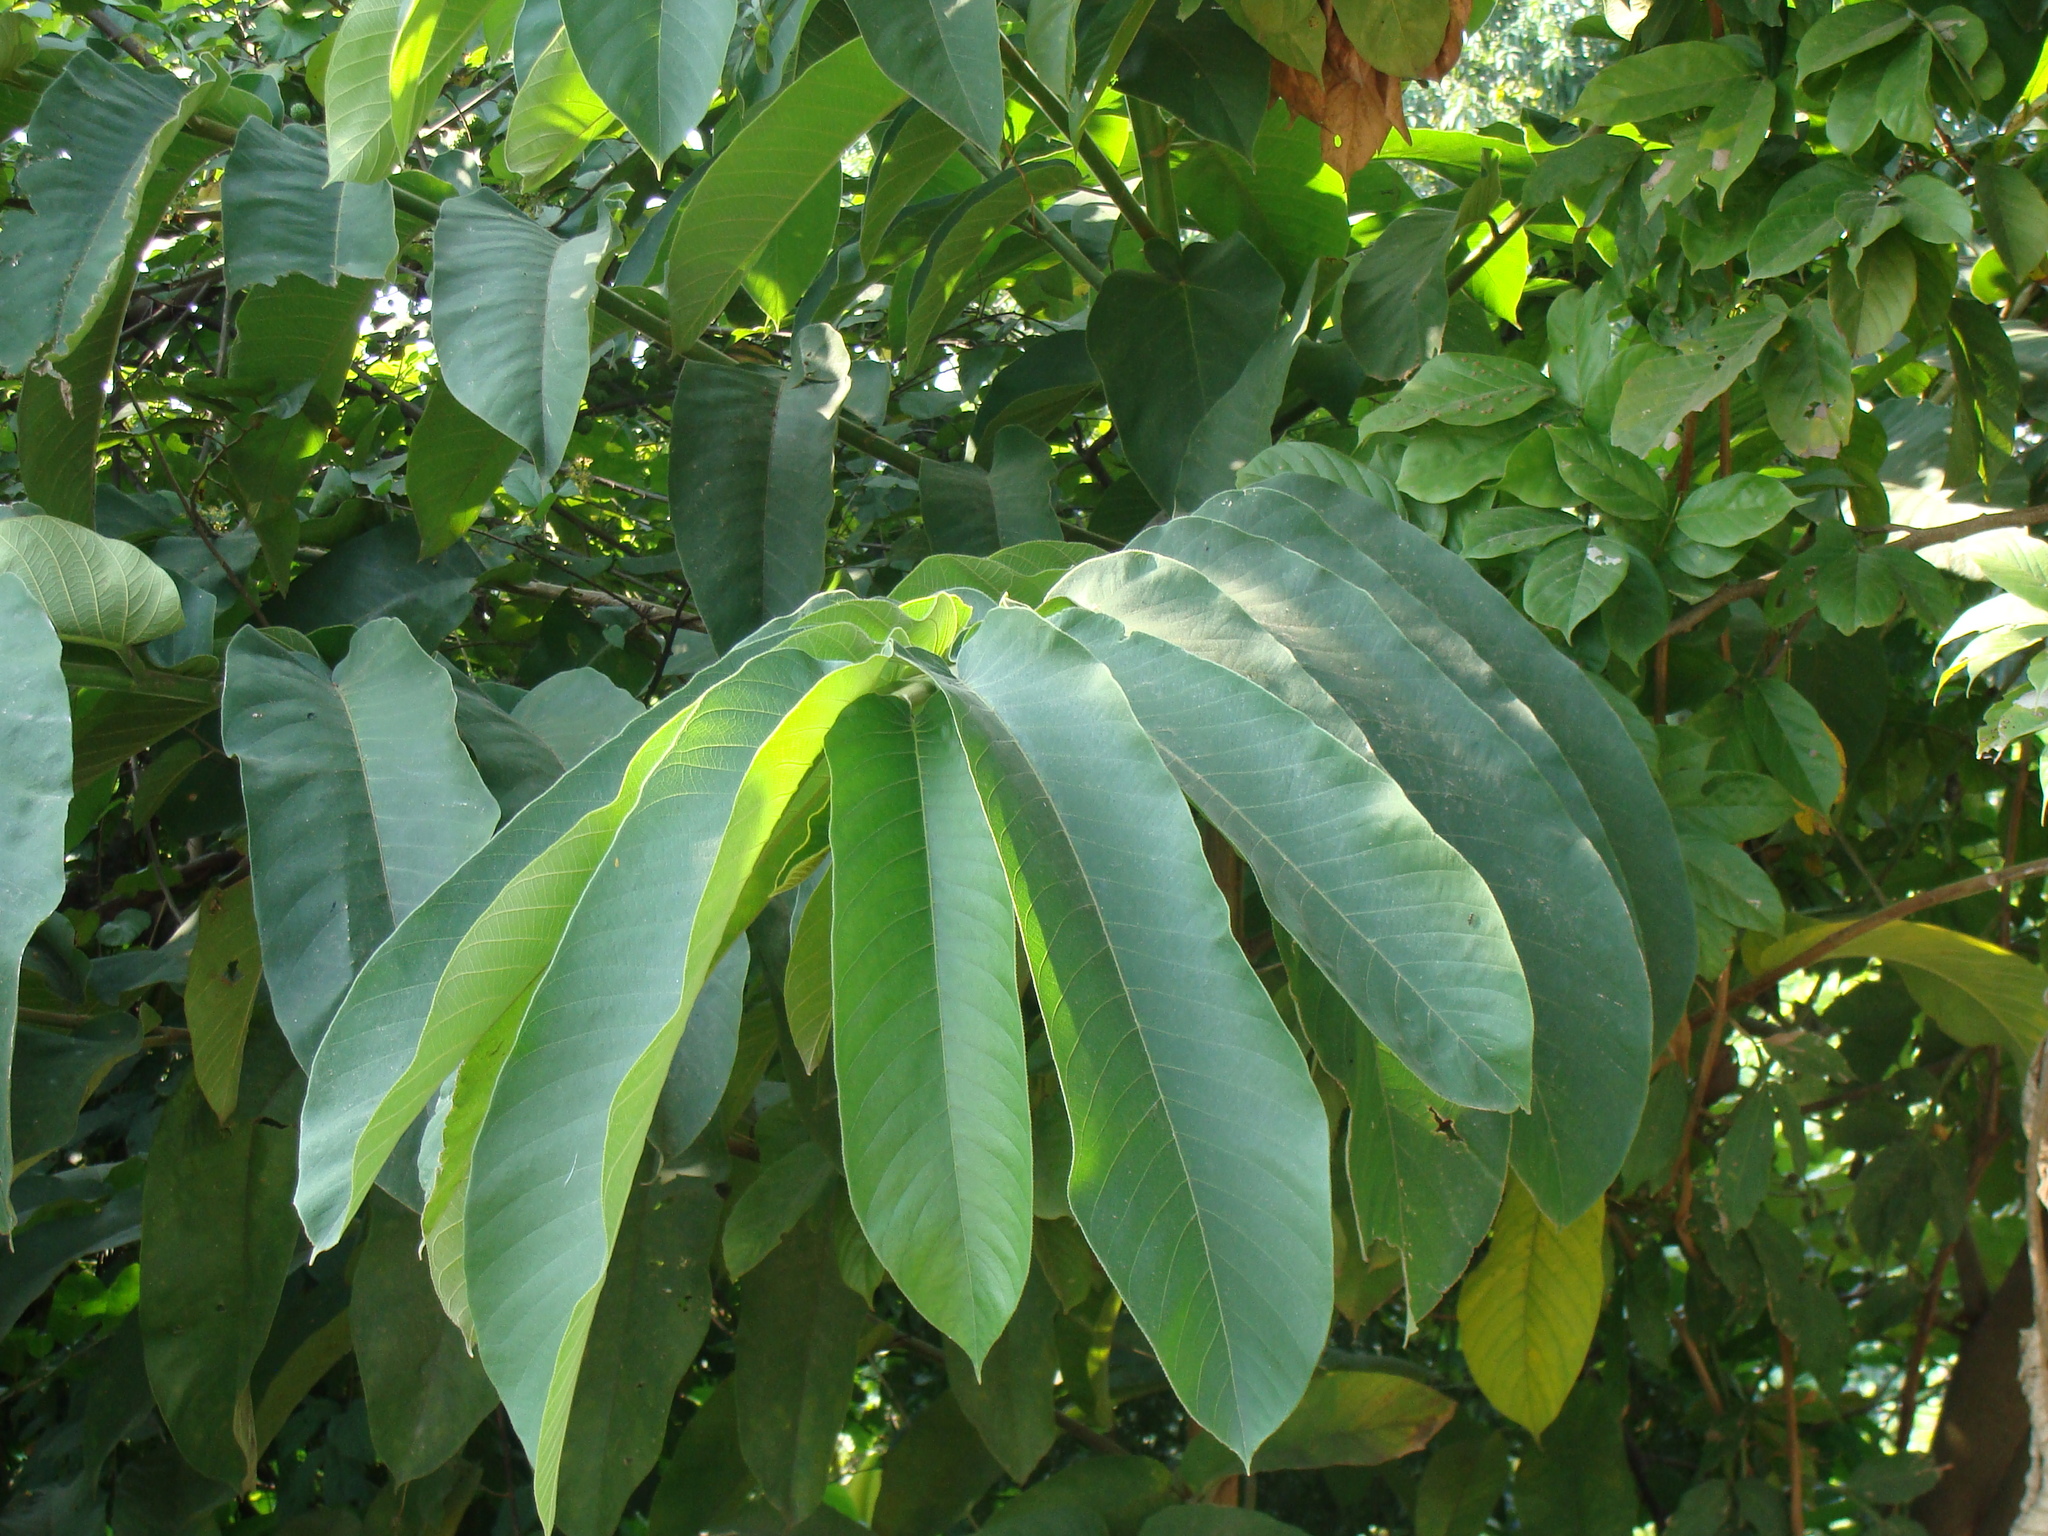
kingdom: Plantae
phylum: Tracheophyta
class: Magnoliopsida
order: Rosales
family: Moraceae
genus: Castilla
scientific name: Castilla elastica
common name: Castilla rubber
